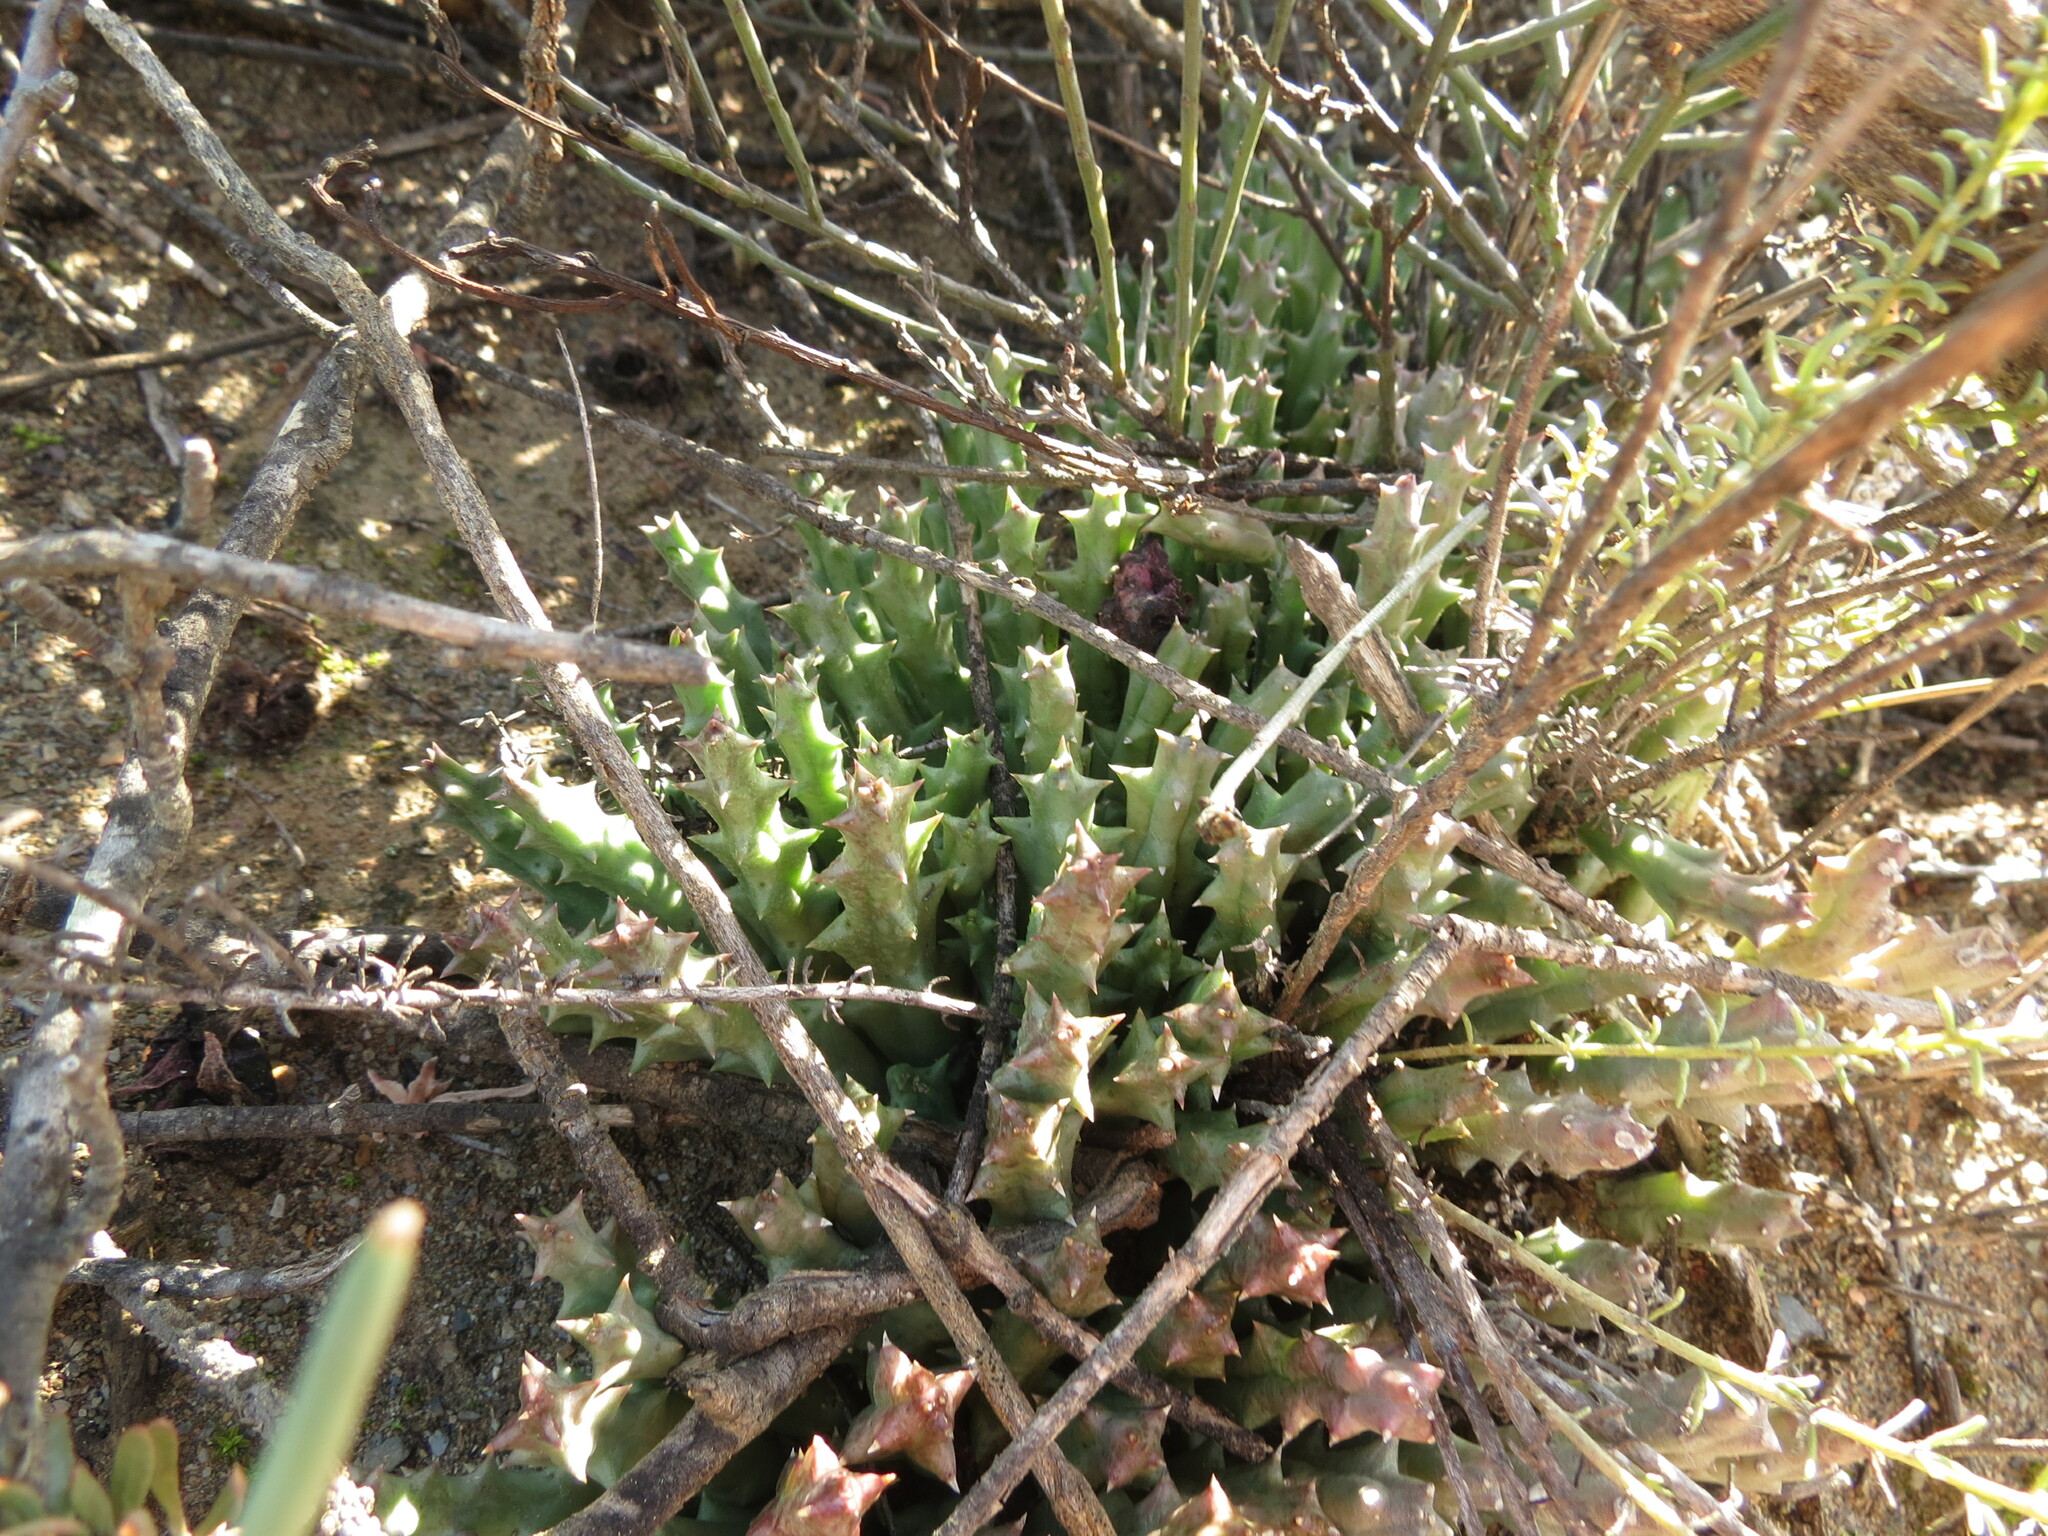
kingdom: Plantae
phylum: Tracheophyta
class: Magnoliopsida
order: Gentianales
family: Apocynaceae
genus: Ceropegia
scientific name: Ceropegia mixta
